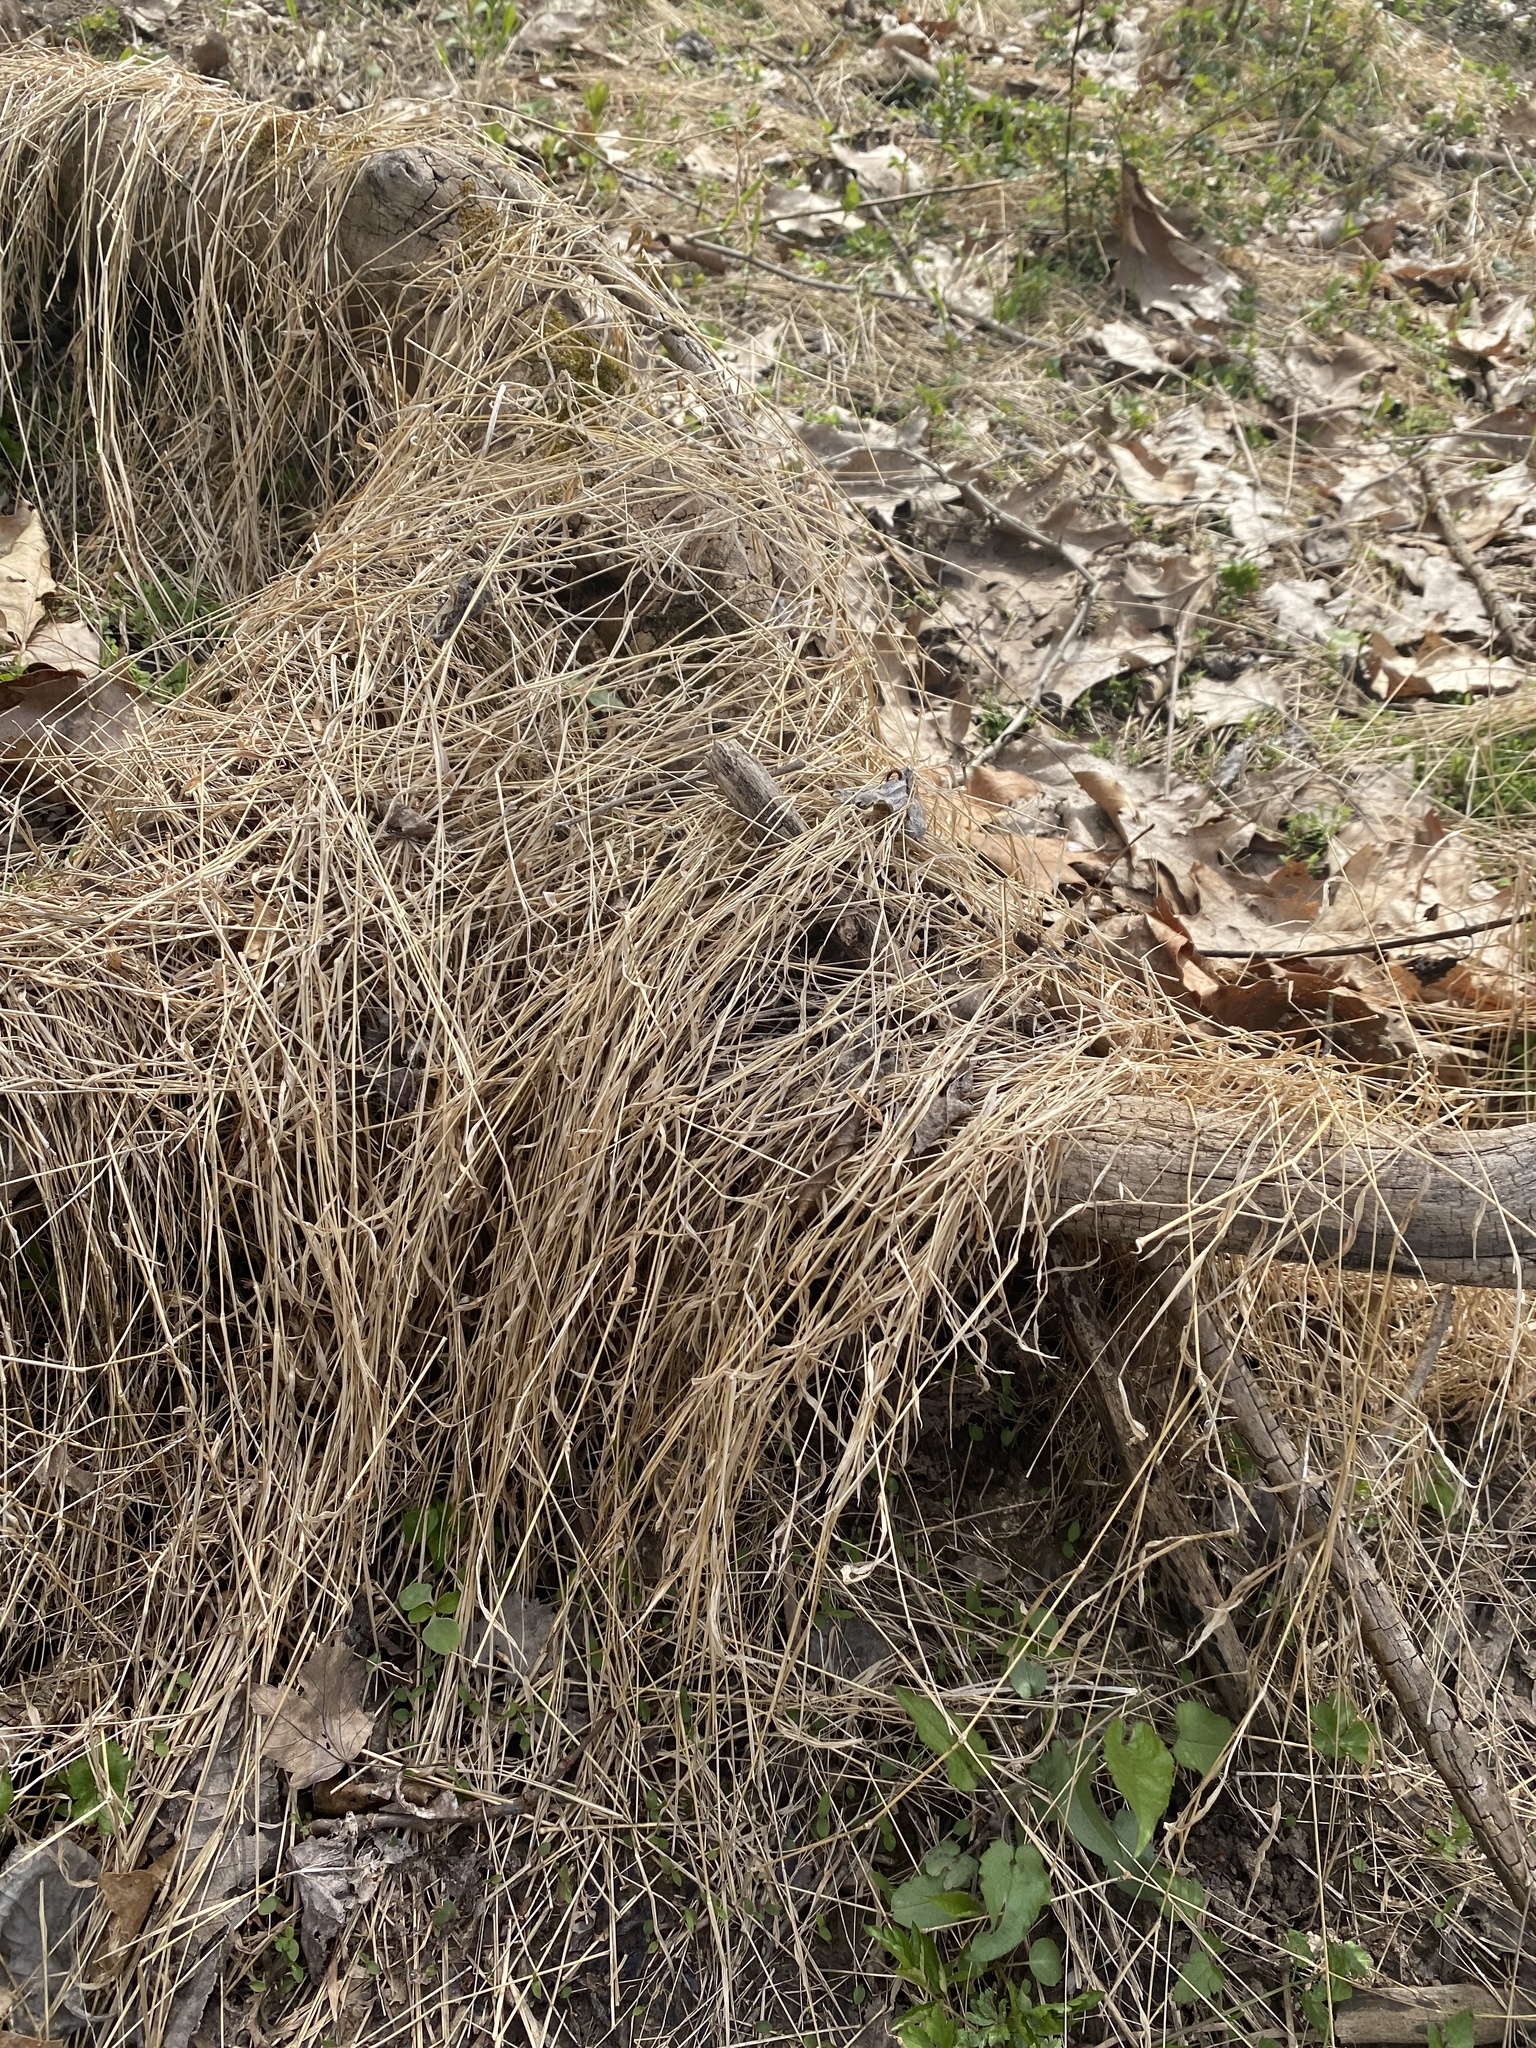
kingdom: Plantae
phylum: Tracheophyta
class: Liliopsida
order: Poales
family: Poaceae
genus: Microstegium
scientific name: Microstegium vimineum
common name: Japanese stiltgrass
